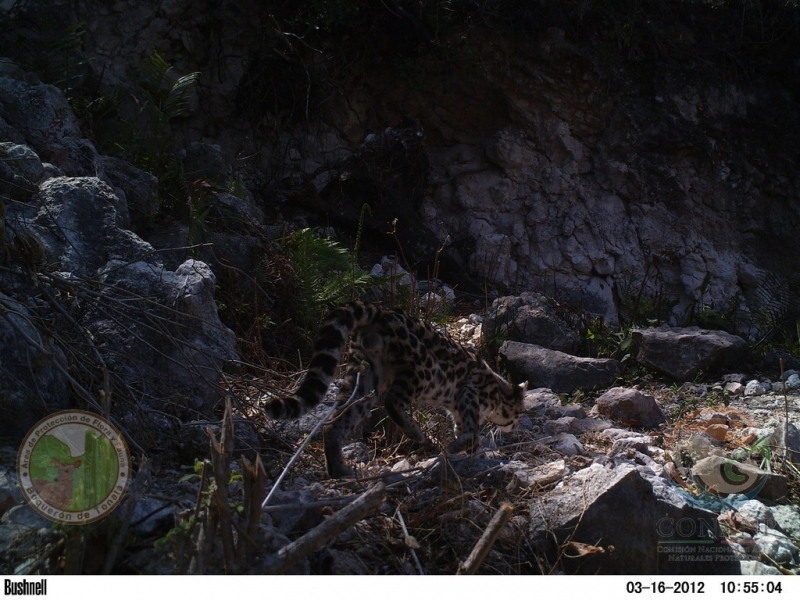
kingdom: Animalia
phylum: Chordata
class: Mammalia
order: Carnivora
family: Felidae
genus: Leopardus
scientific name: Leopardus wiedii
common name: Margay
